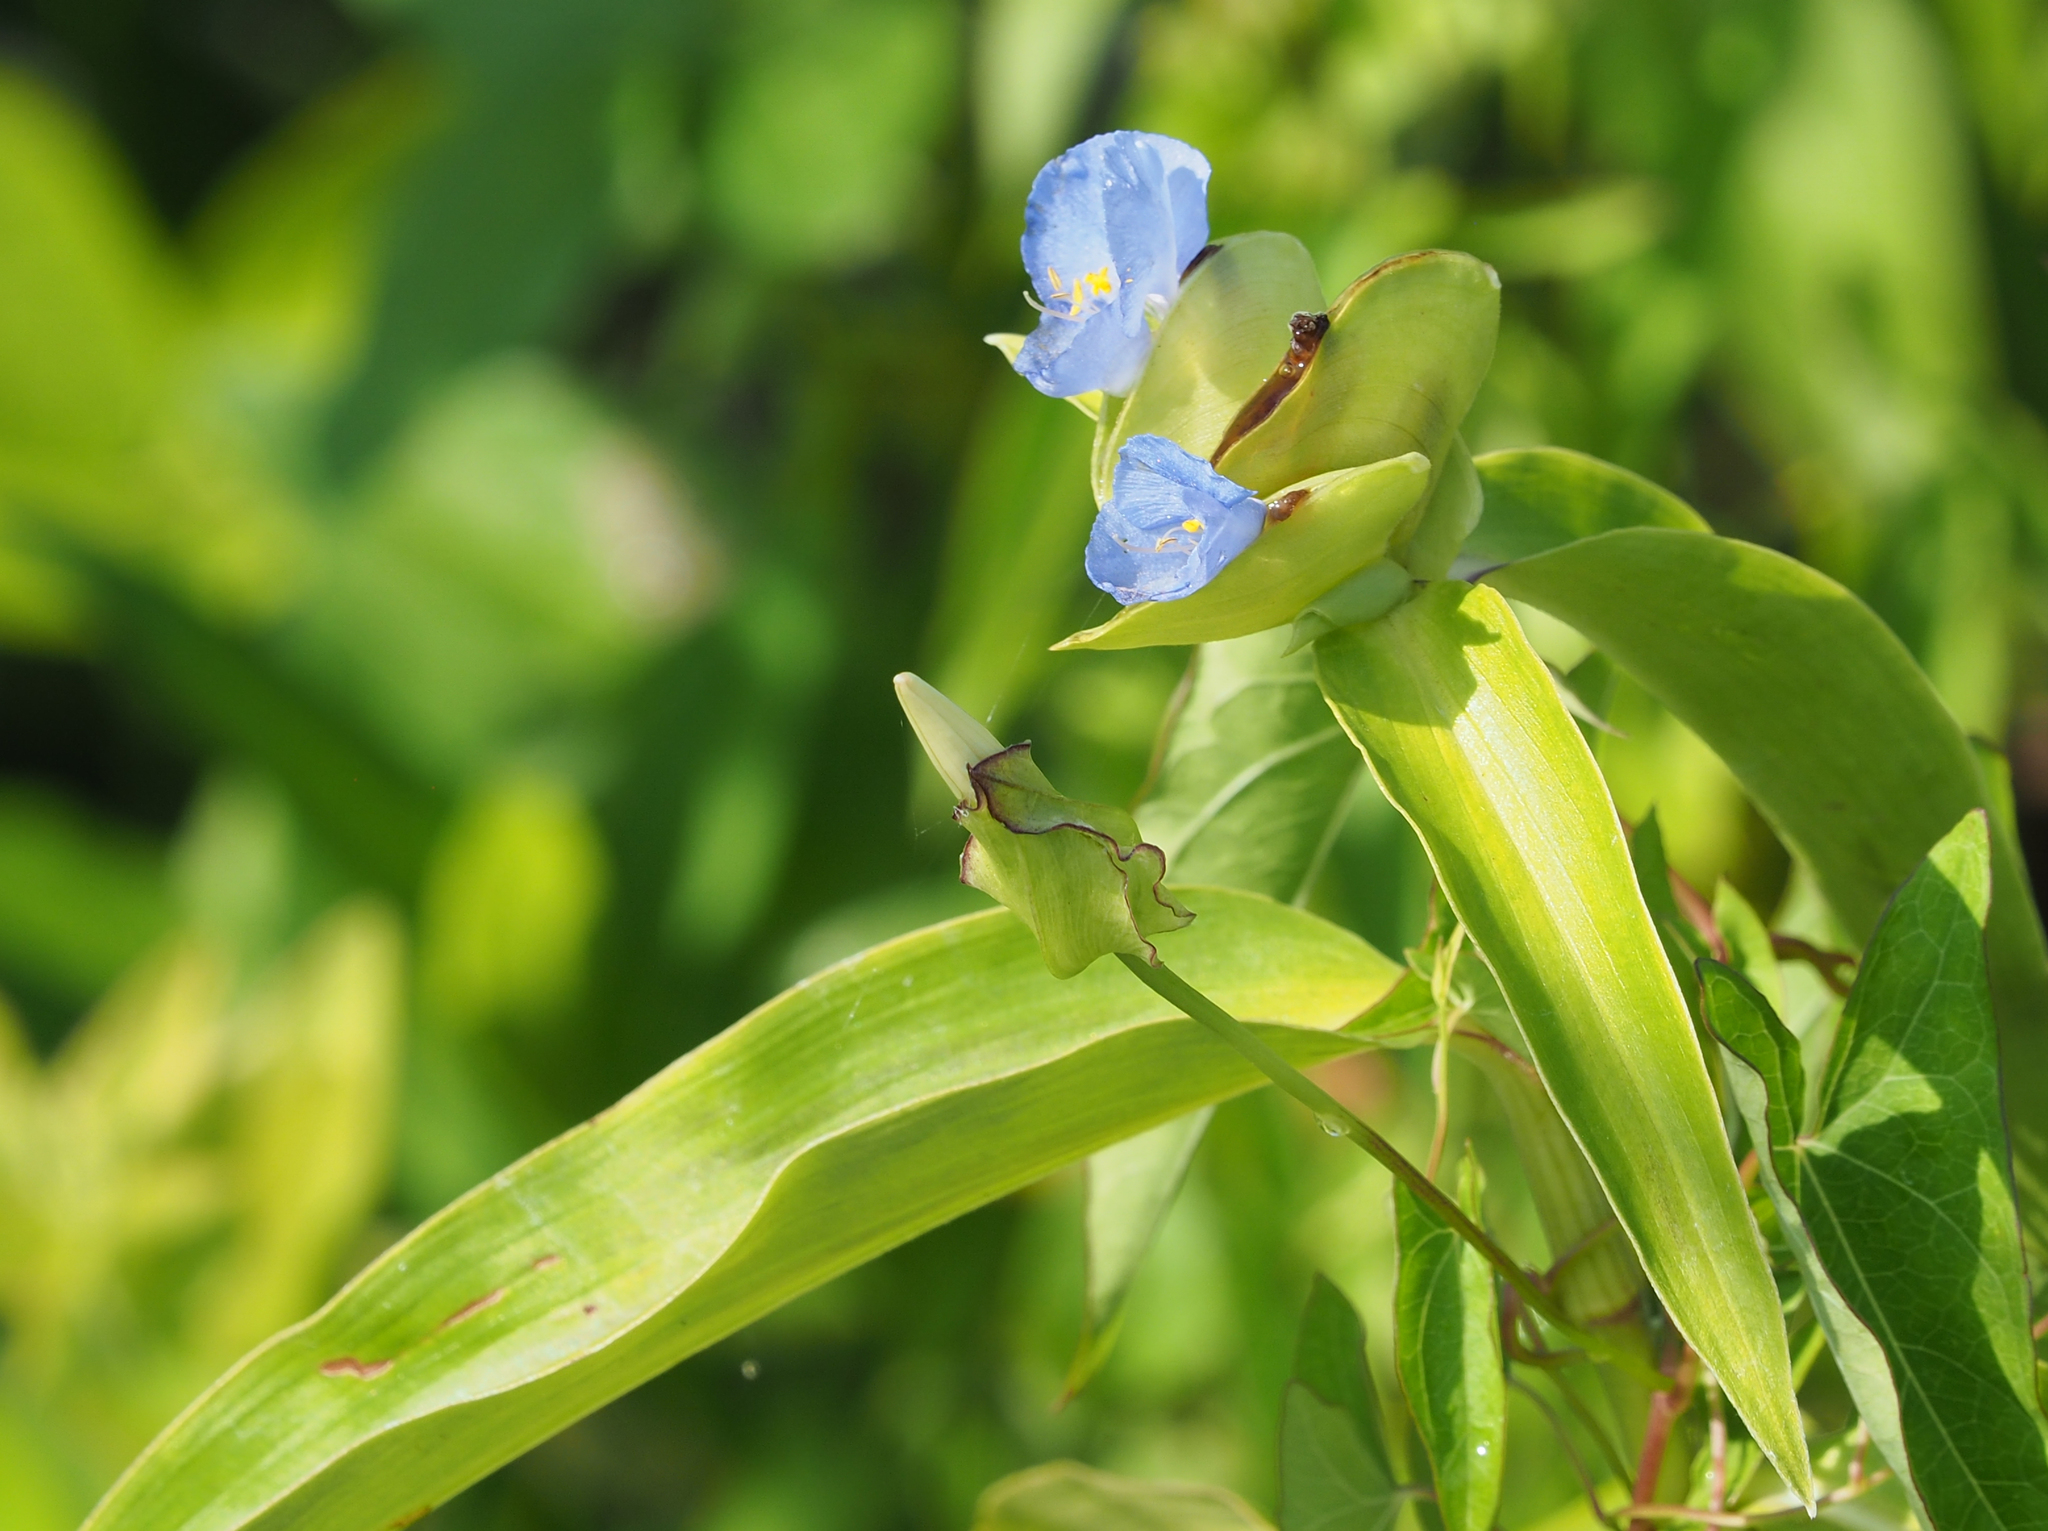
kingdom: Plantae
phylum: Tracheophyta
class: Liliopsida
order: Commelinales
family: Commelinaceae
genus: Commelina
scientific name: Commelina virginica
